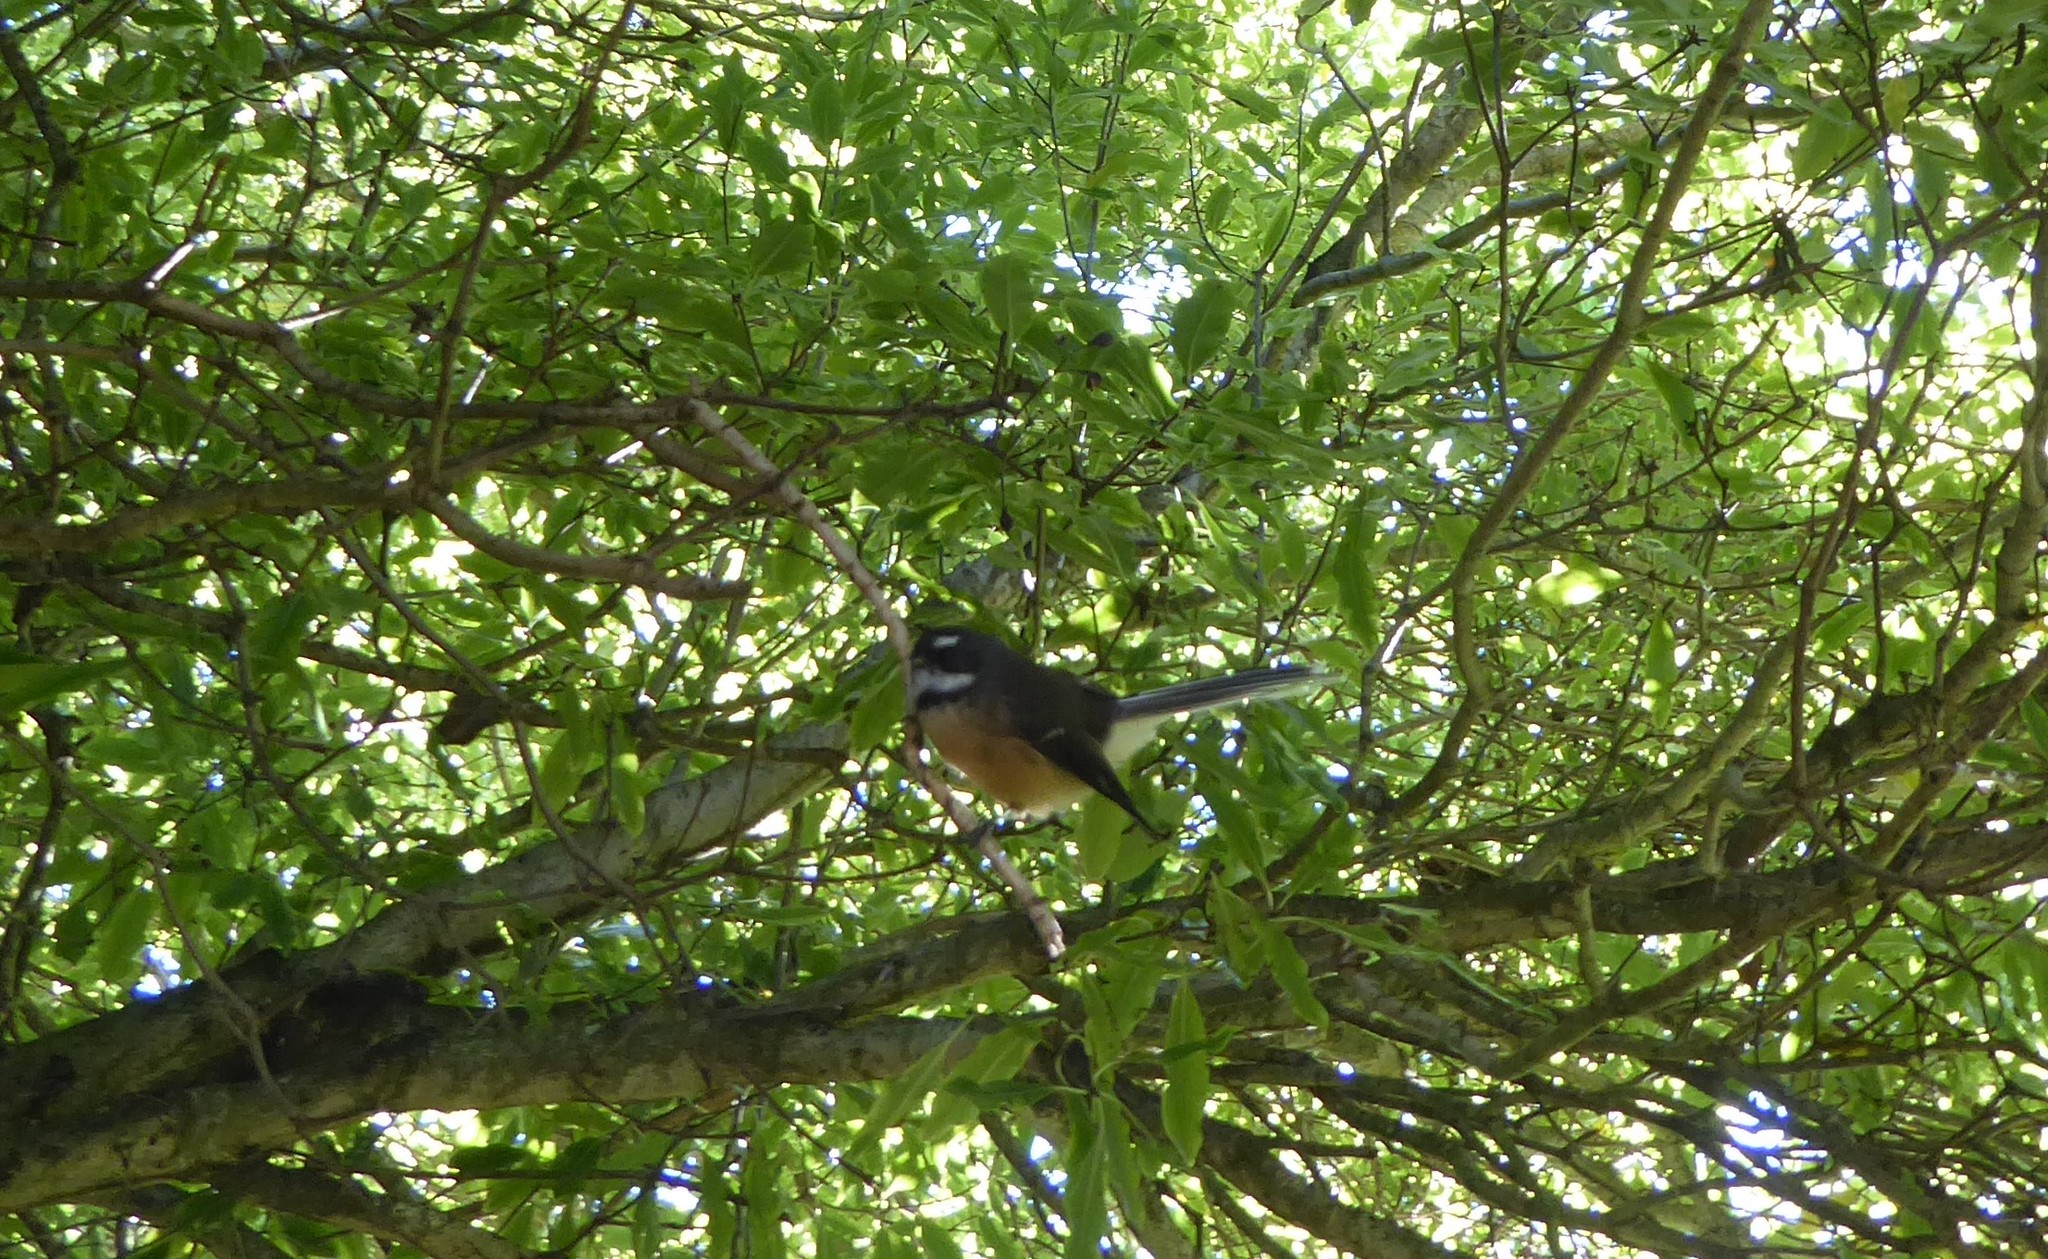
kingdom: Animalia
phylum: Chordata
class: Aves
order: Passeriformes
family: Rhipiduridae
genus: Rhipidura
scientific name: Rhipidura fuliginosa
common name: New zealand fantail
